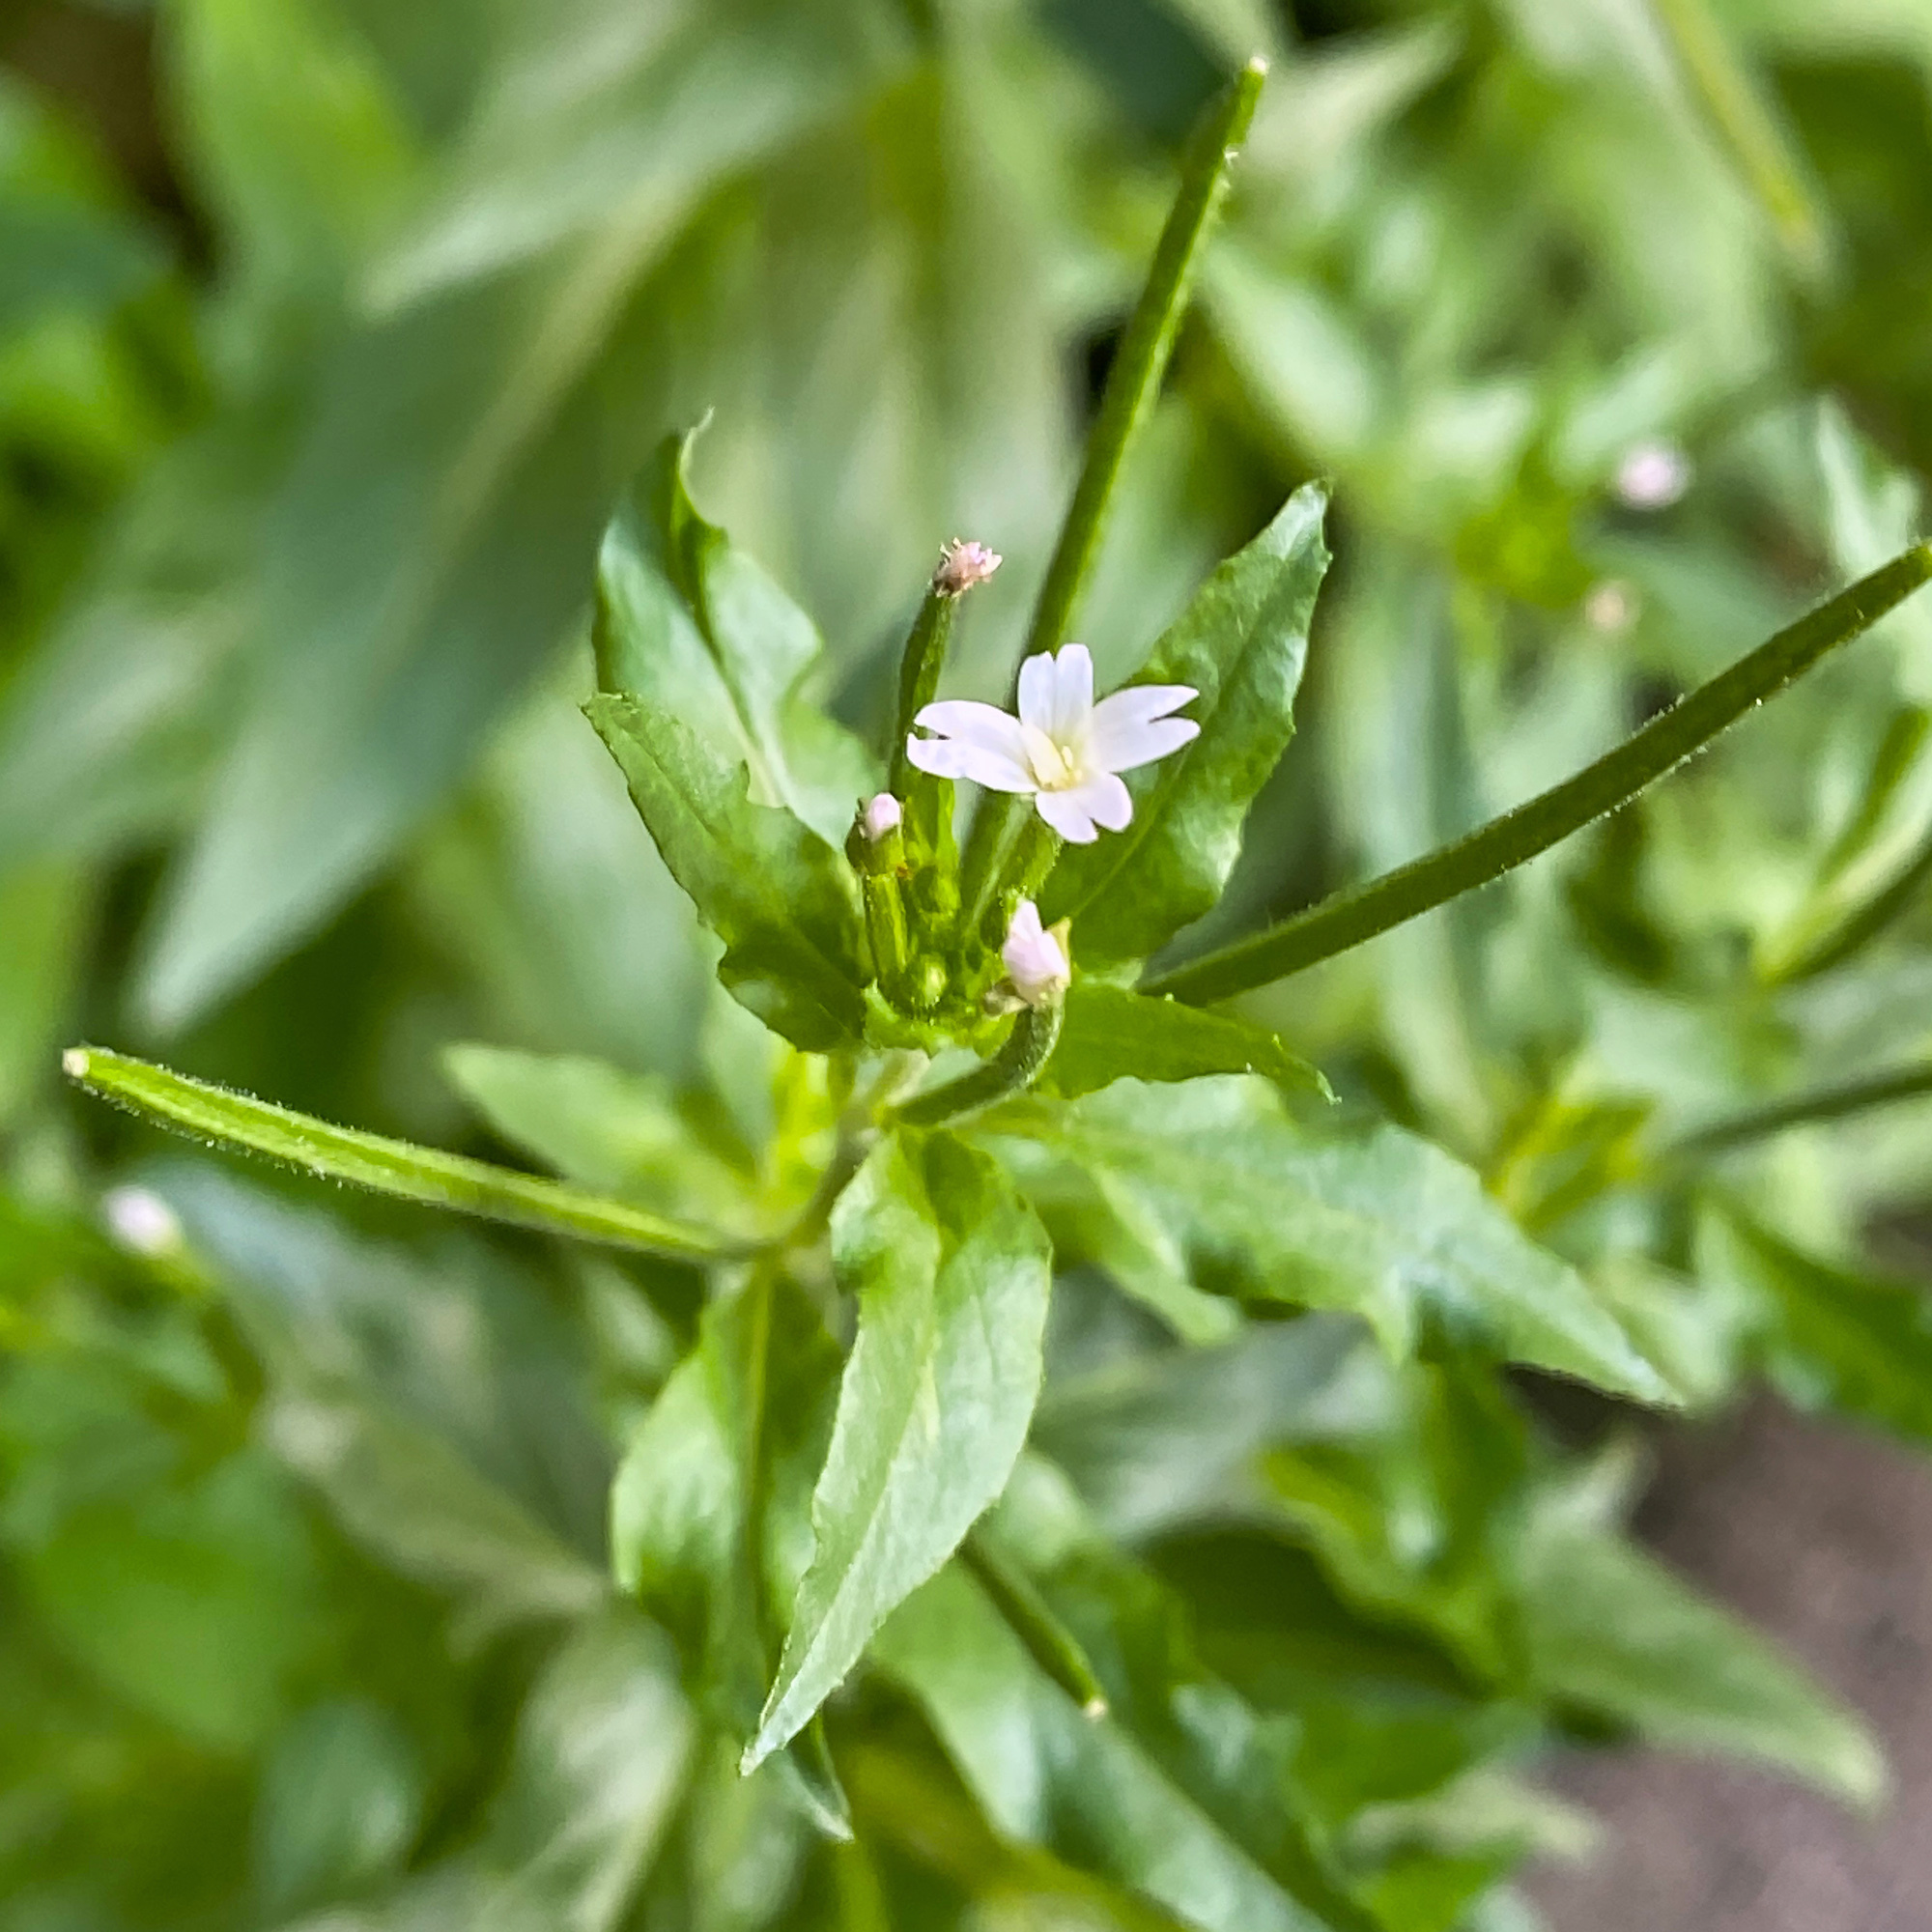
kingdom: Plantae
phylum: Tracheophyta
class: Magnoliopsida
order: Myrtales
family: Onagraceae
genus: Epilobium
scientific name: Epilobium ciliatum
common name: American willowherb
